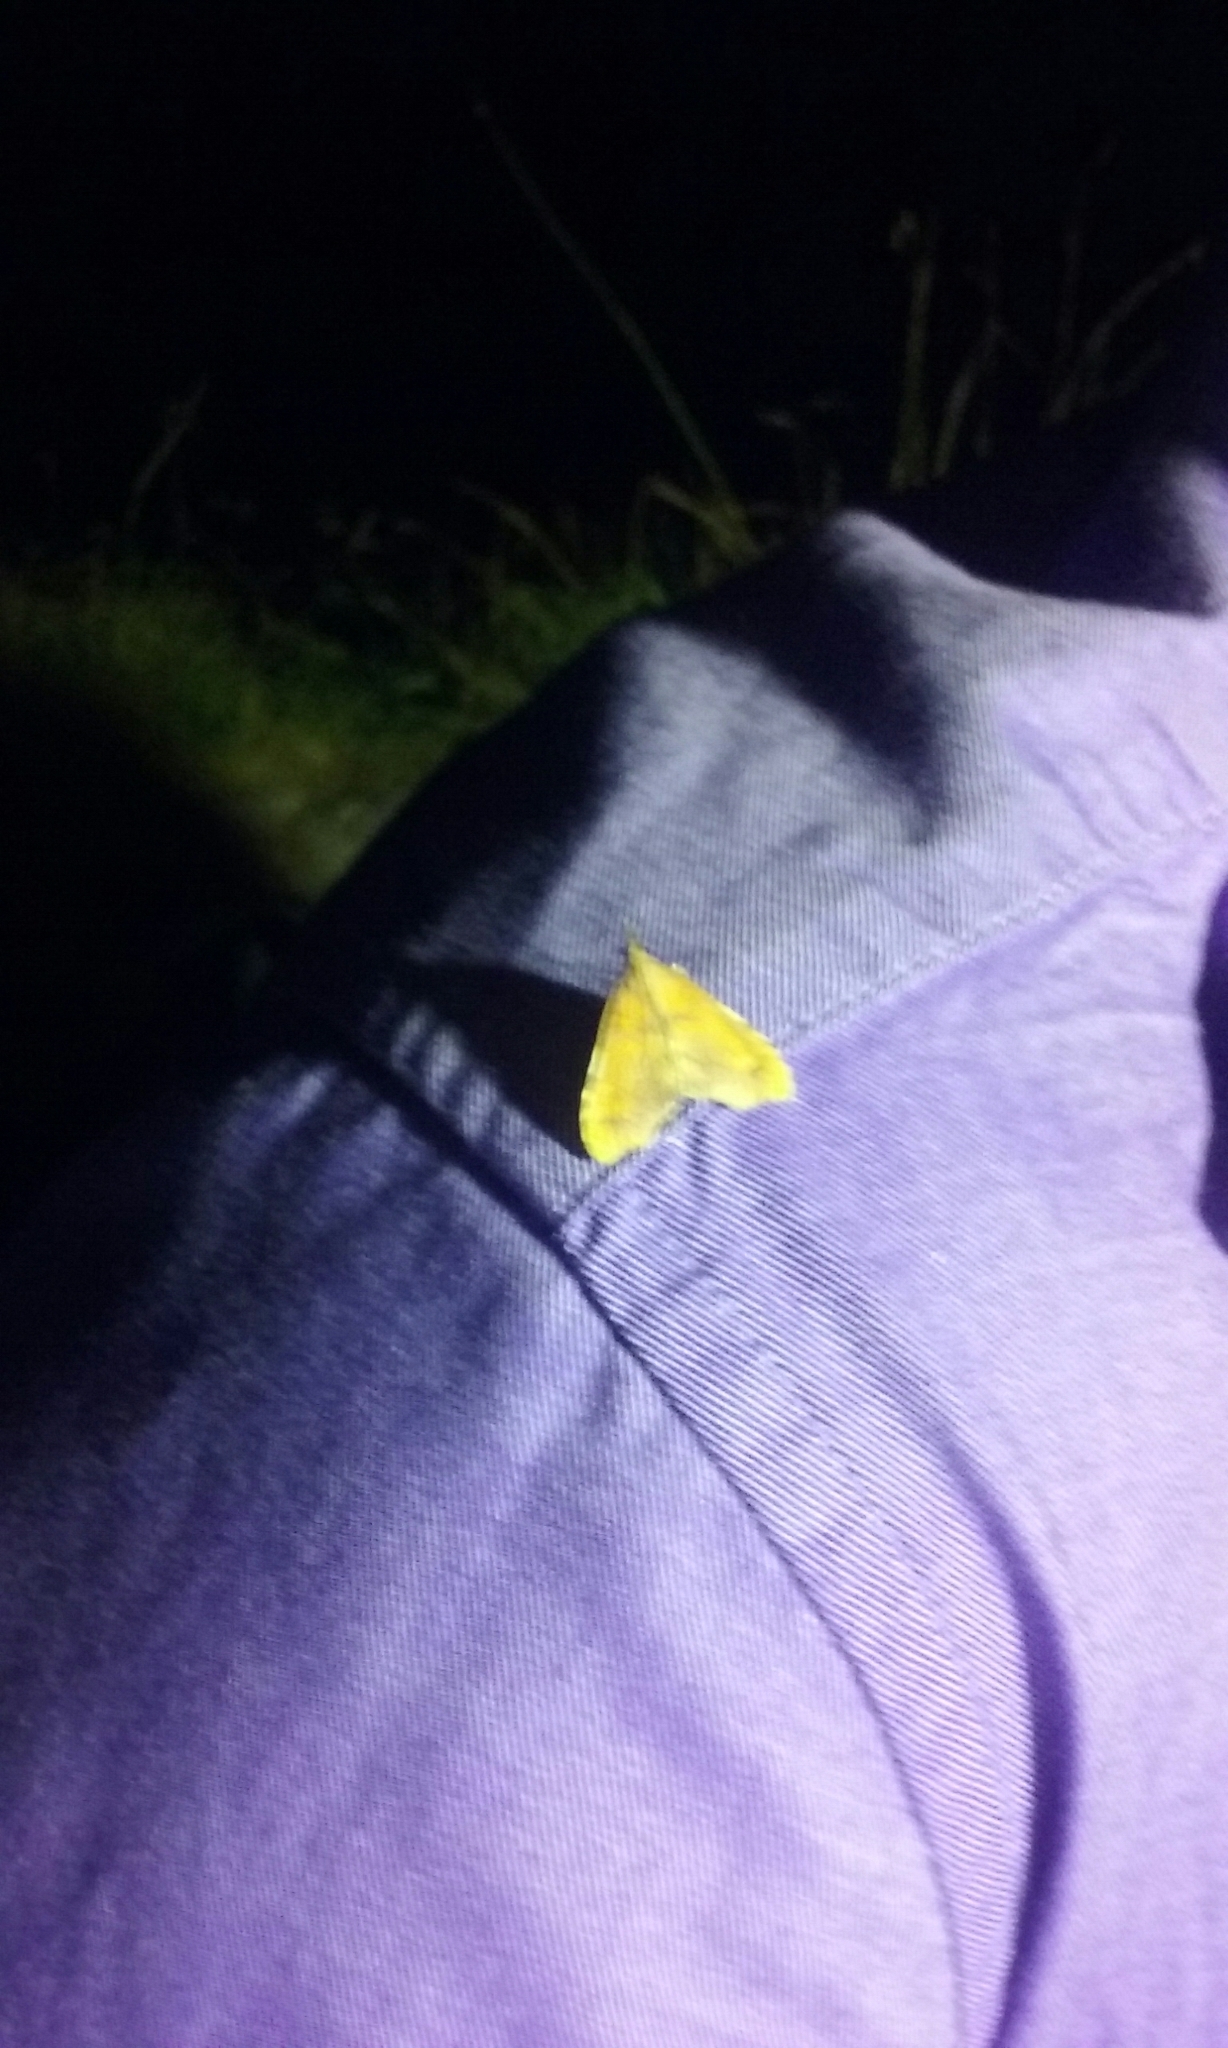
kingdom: Animalia
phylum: Arthropoda
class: Insecta
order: Lepidoptera
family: Crambidae
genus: Deana
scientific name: Deana hybreasalis
